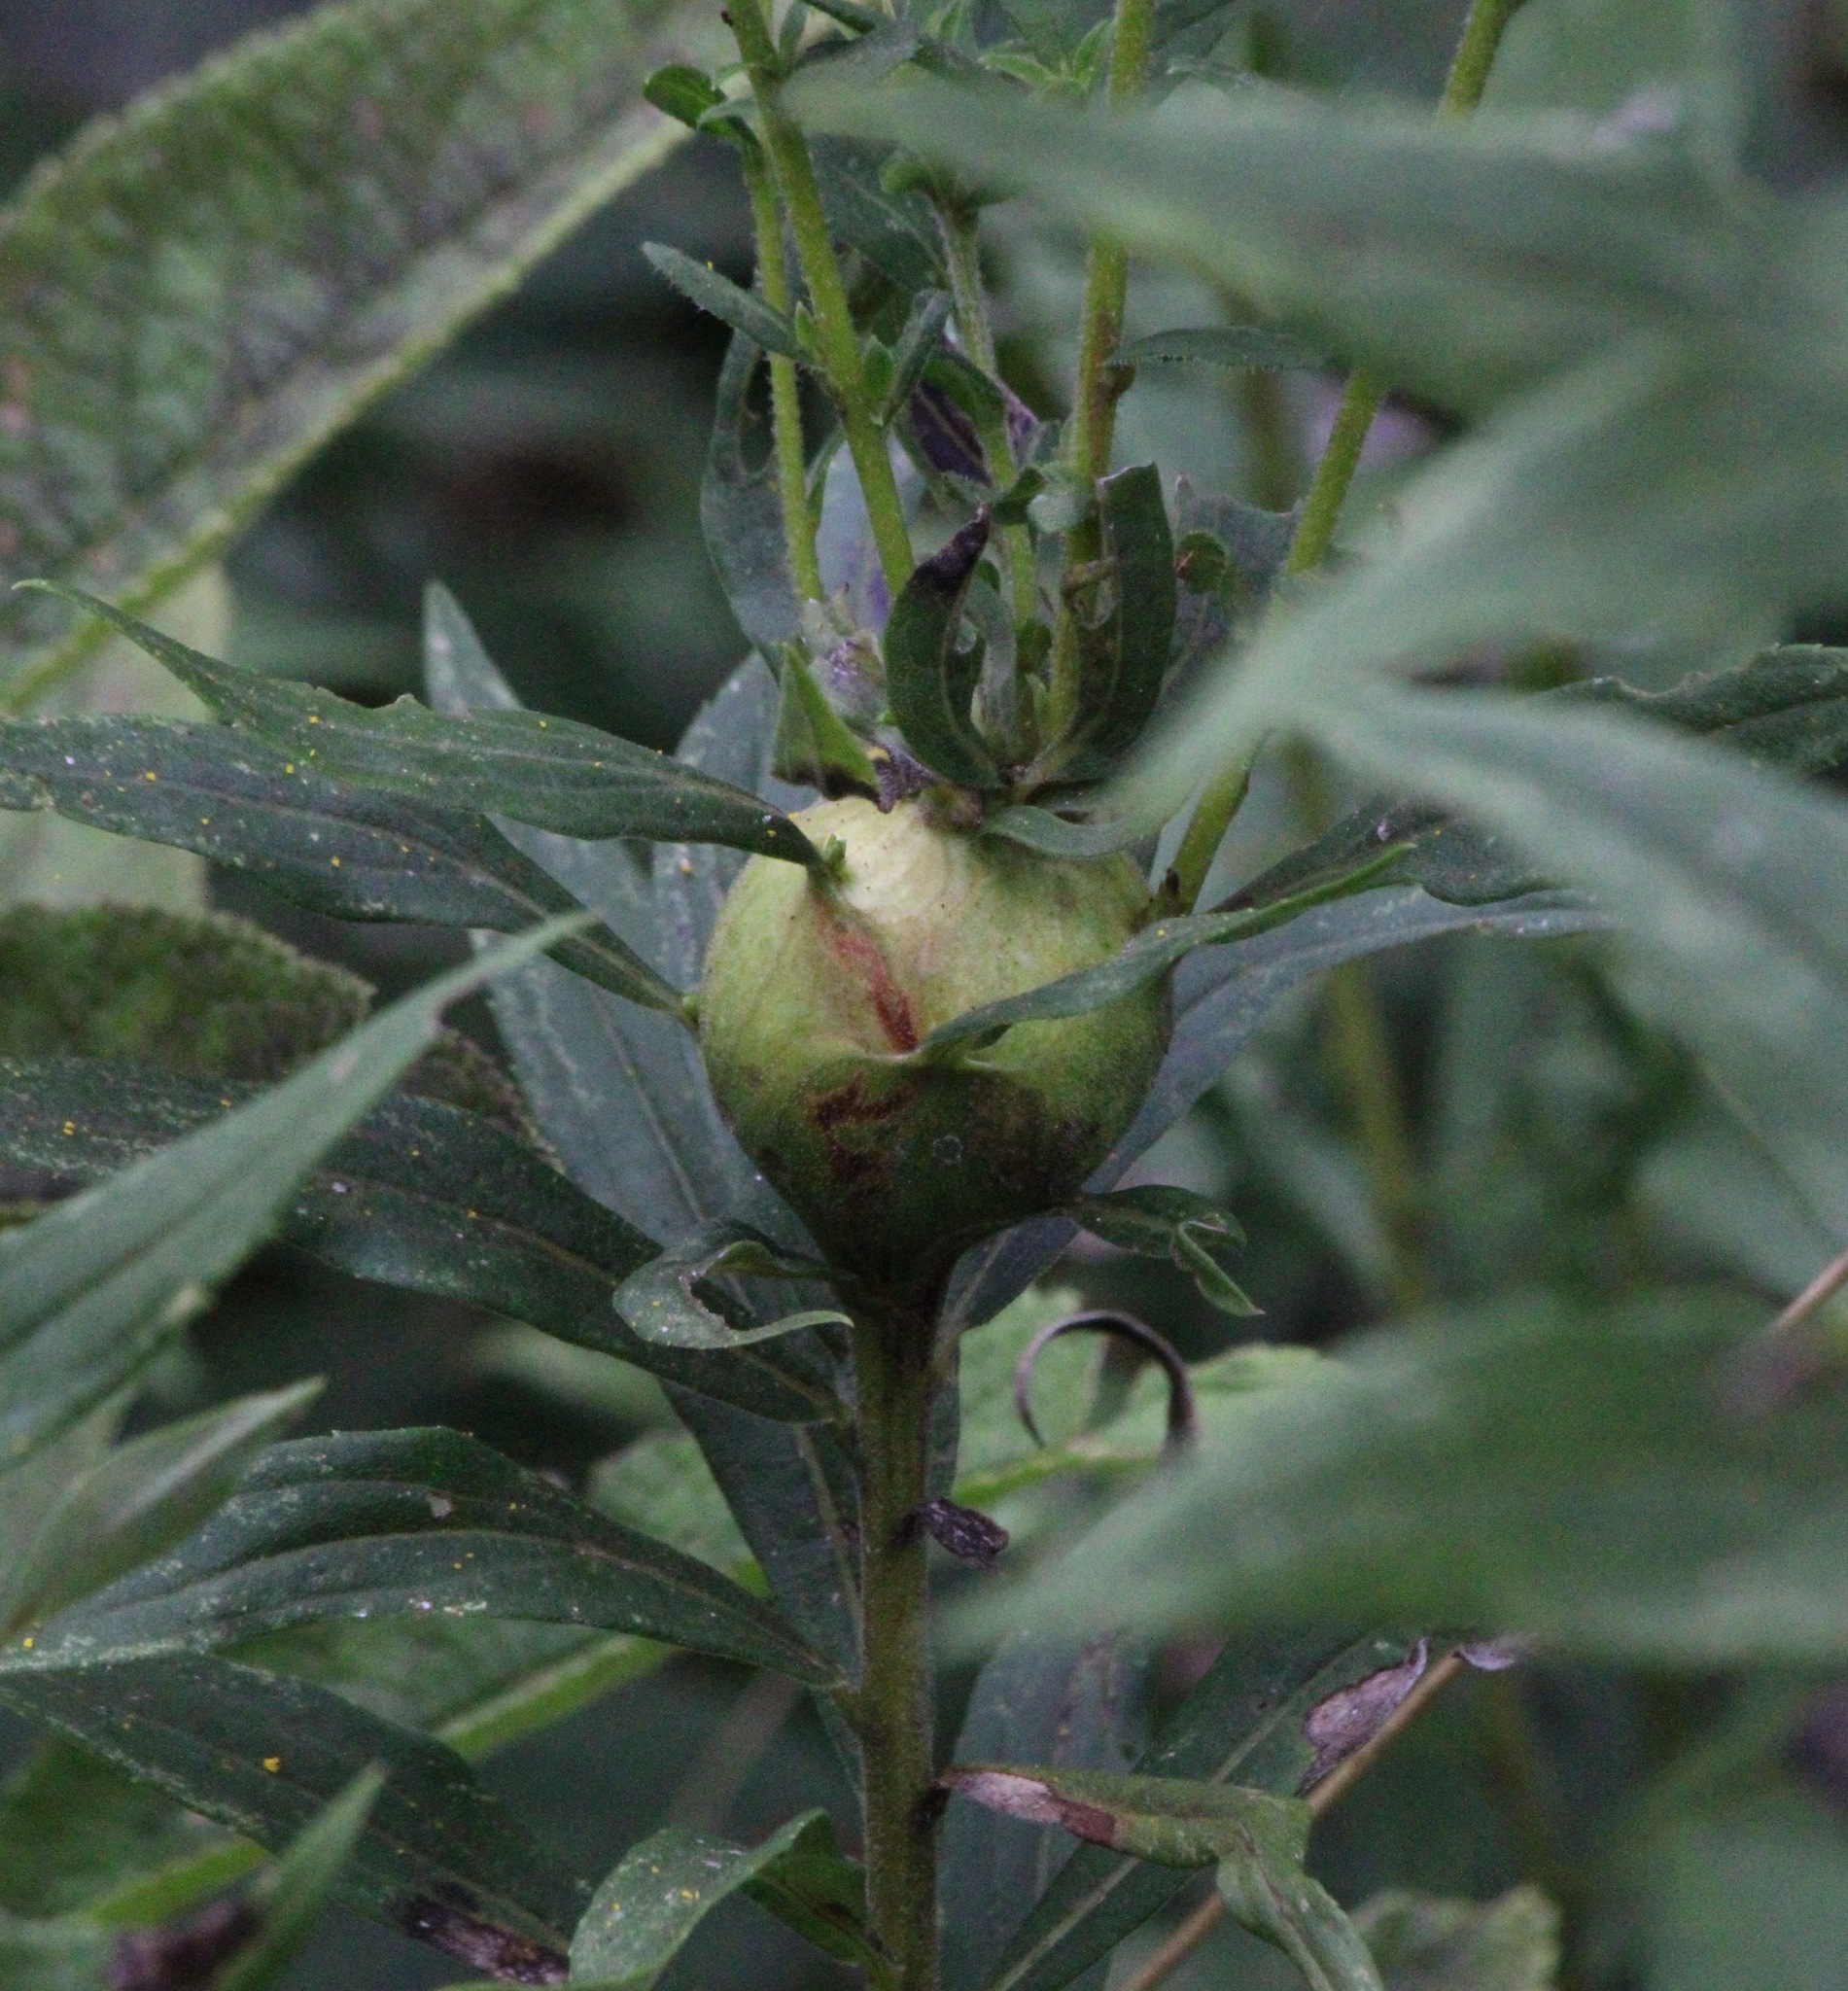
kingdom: Animalia
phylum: Arthropoda
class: Insecta
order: Diptera
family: Tephritidae
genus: Eurosta
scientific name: Eurosta solidaginis
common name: Goldenrod gall fly
